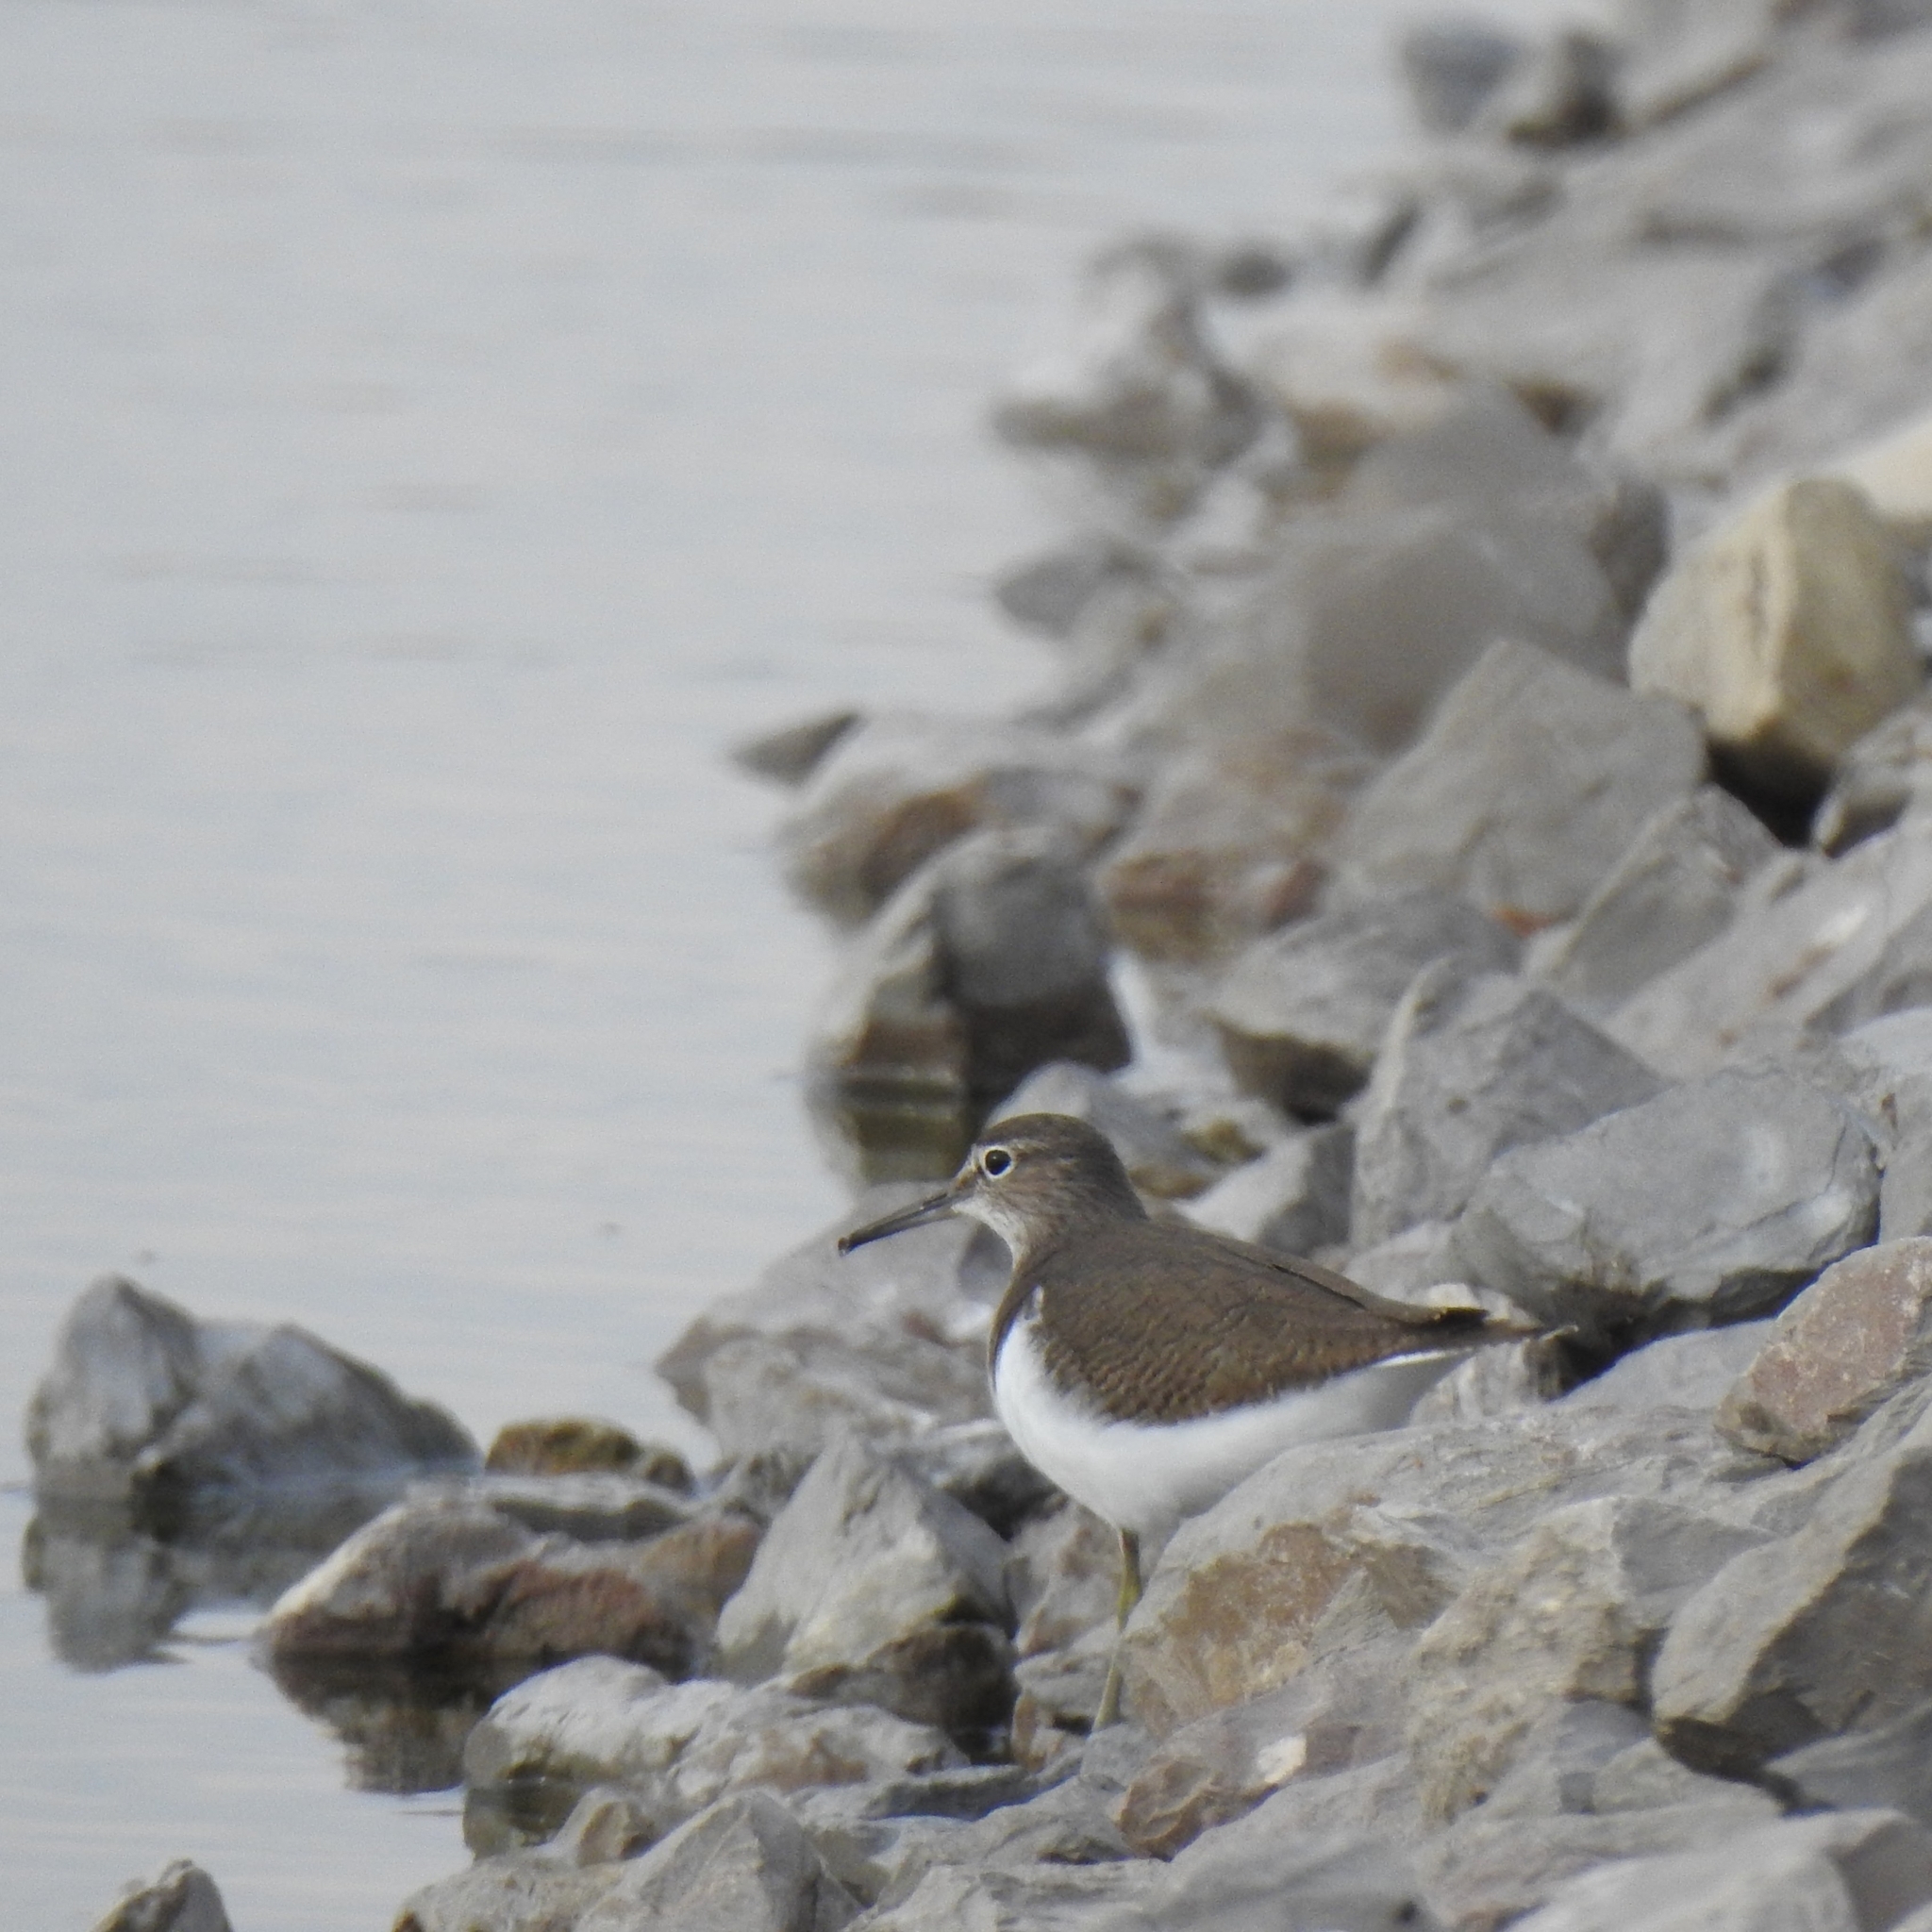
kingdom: Animalia
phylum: Chordata
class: Aves
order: Charadriiformes
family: Scolopacidae
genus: Actitis
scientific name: Actitis hypoleucos
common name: Common sandpiper
